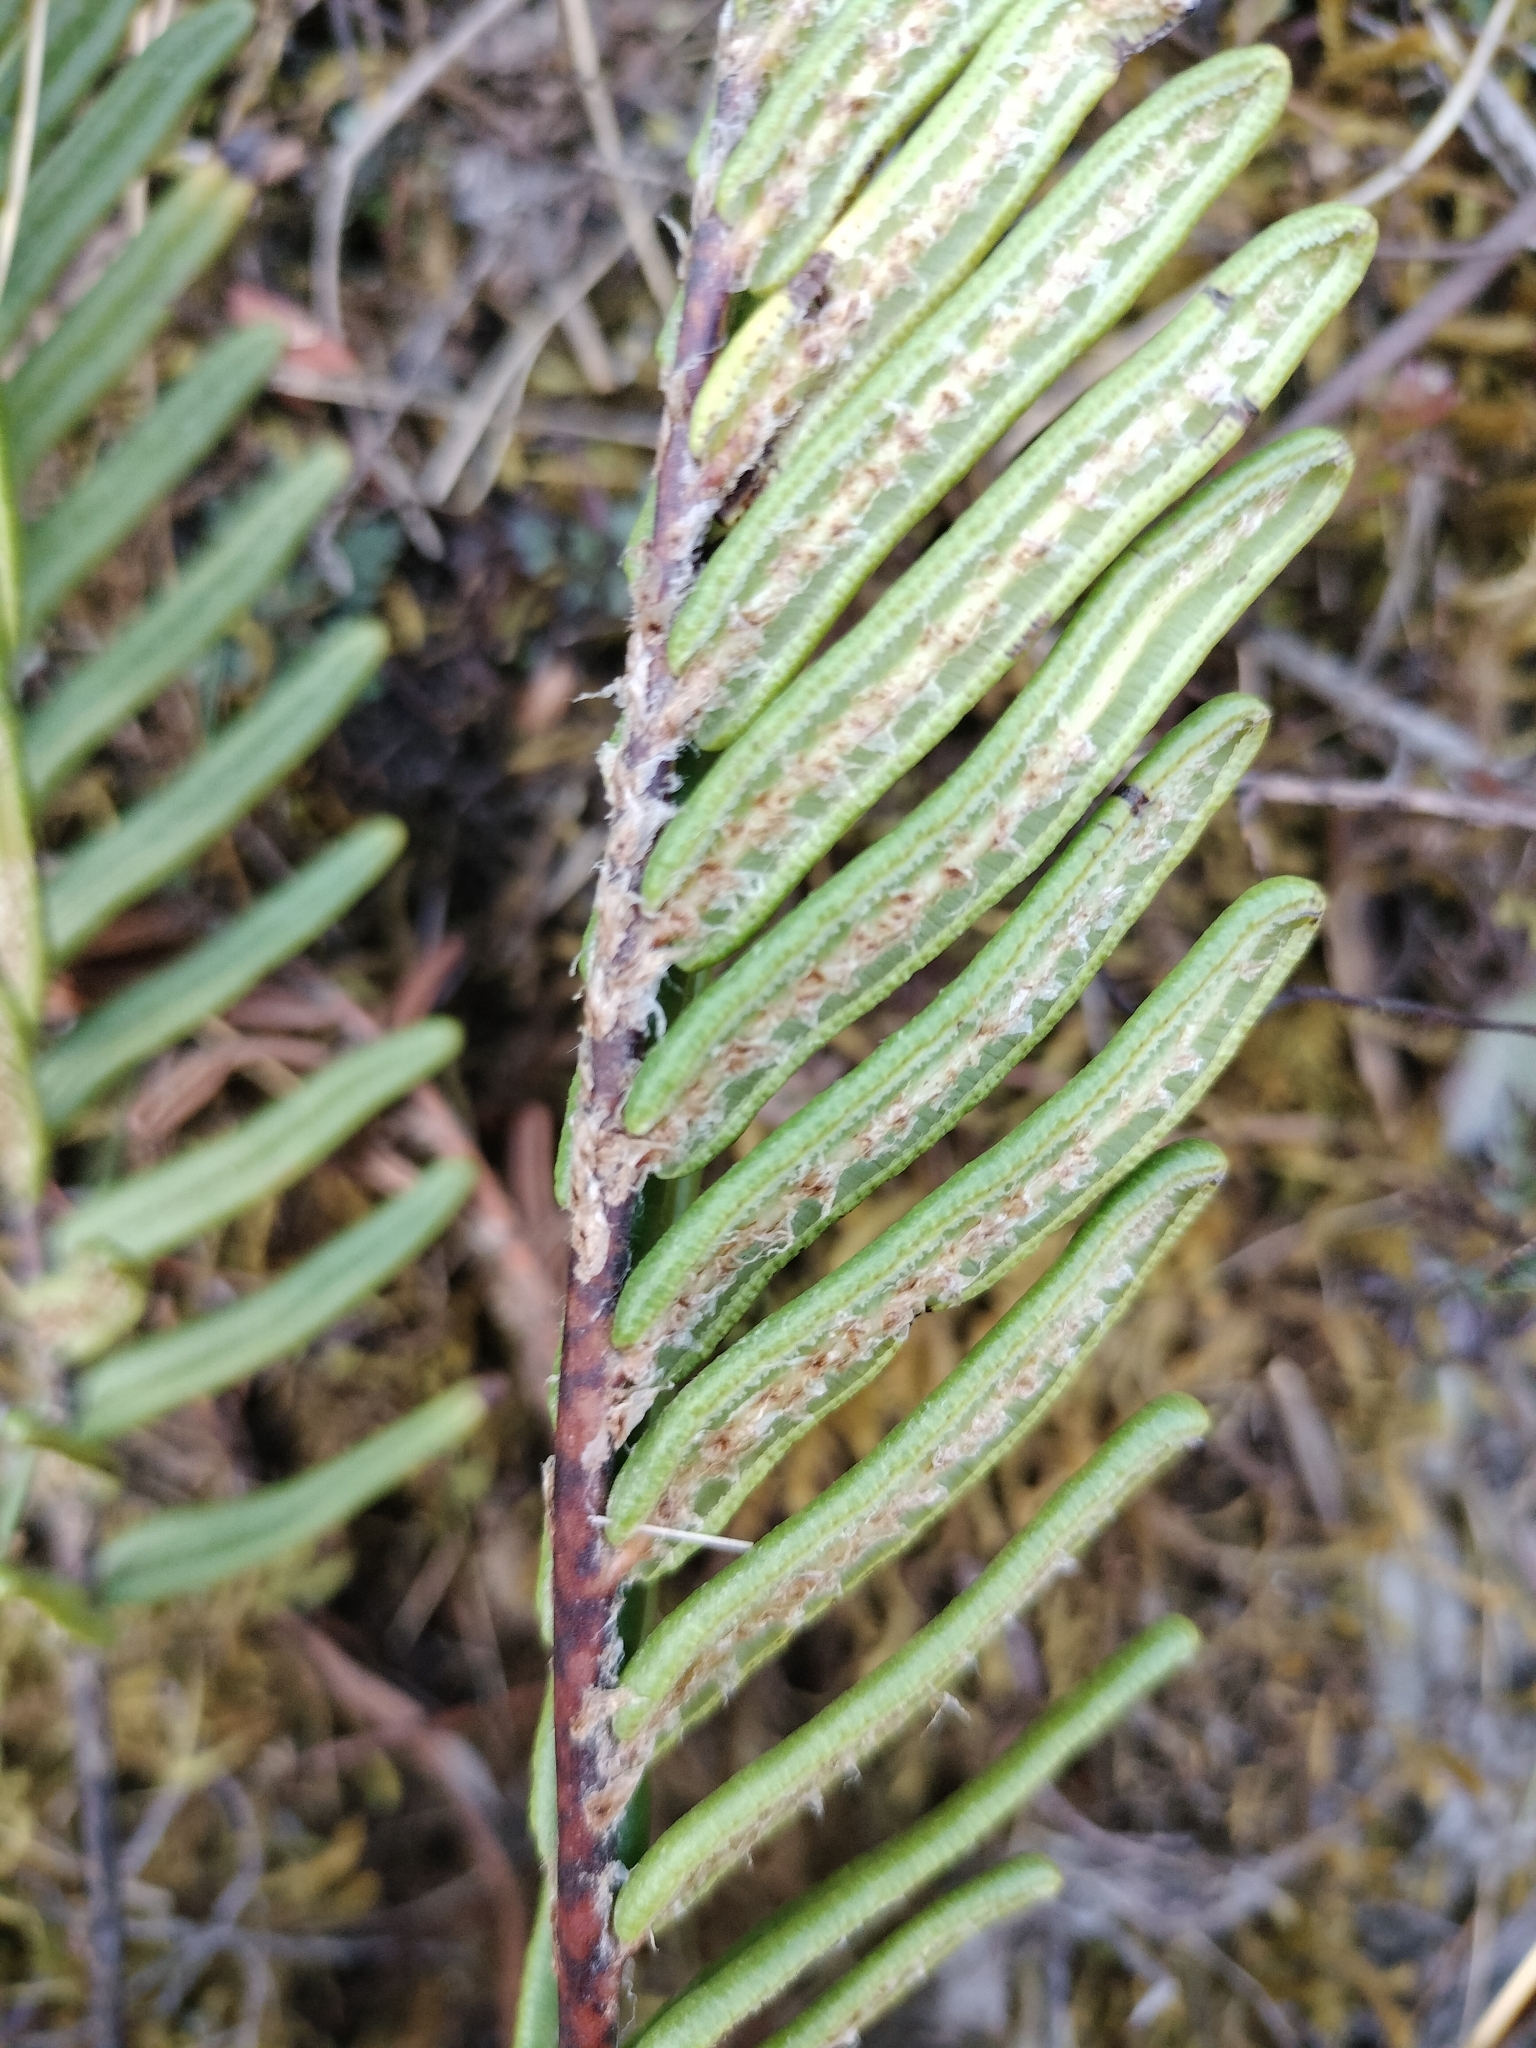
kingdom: Plantae
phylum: Tracheophyta
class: Polypodiopsida
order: Polypodiales
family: Blechnaceae
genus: Parablechnum
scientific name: Parablechnum loxense
